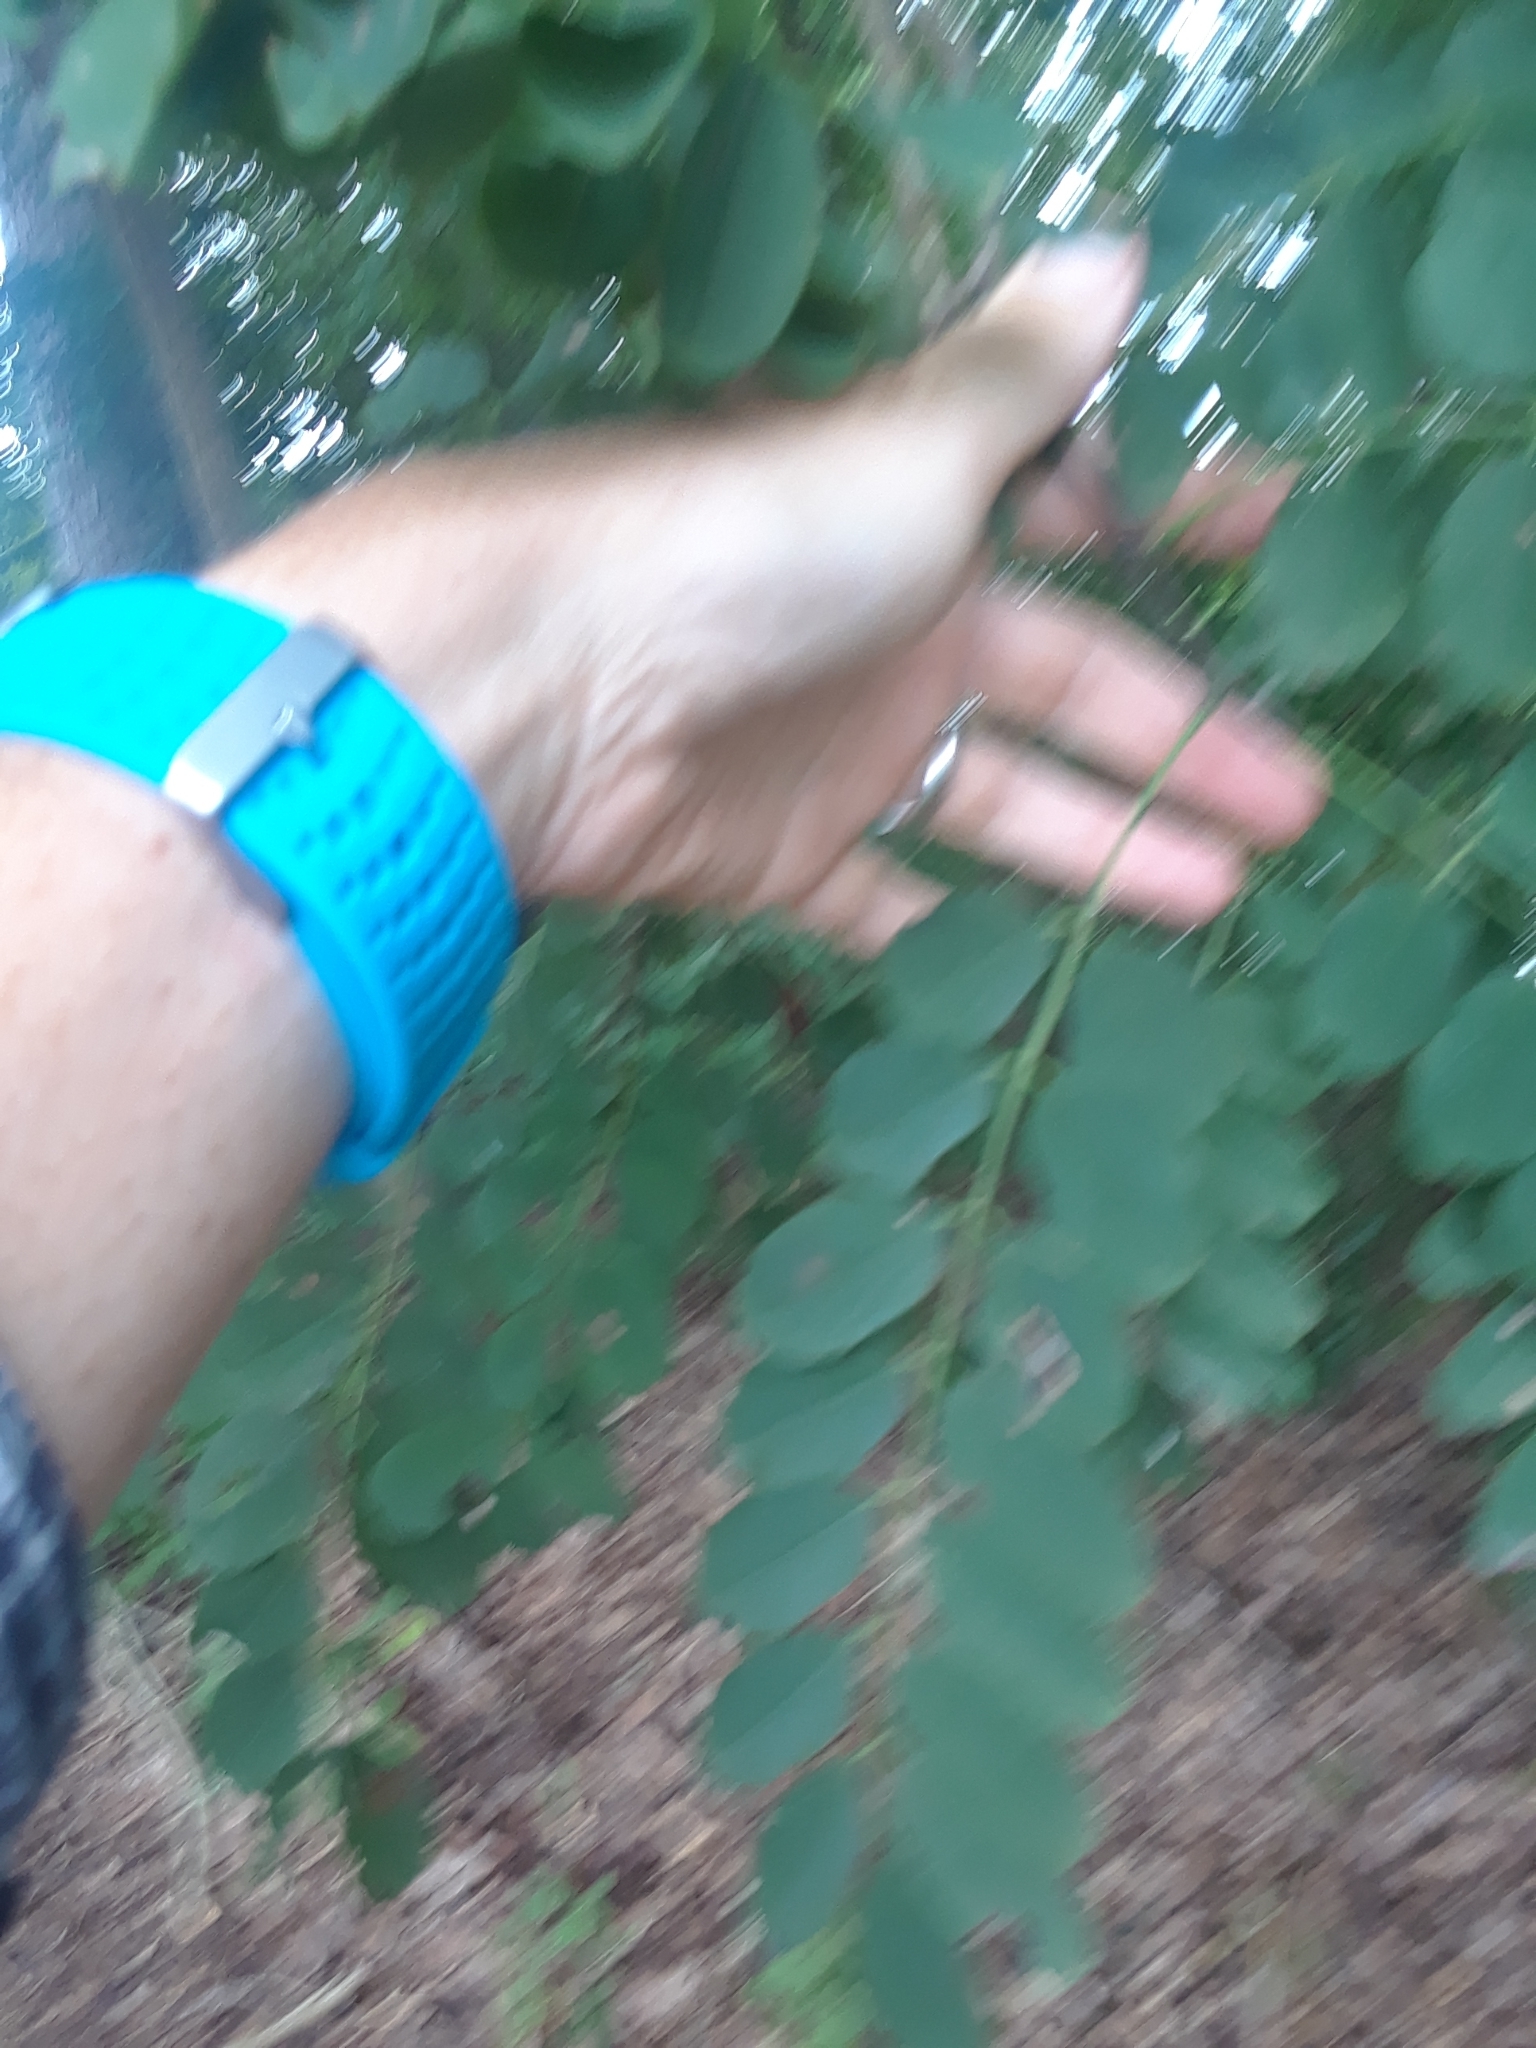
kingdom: Plantae
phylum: Tracheophyta
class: Magnoliopsida
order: Fabales
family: Fabaceae
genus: Robinia
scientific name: Robinia pseudoacacia
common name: Black locust
